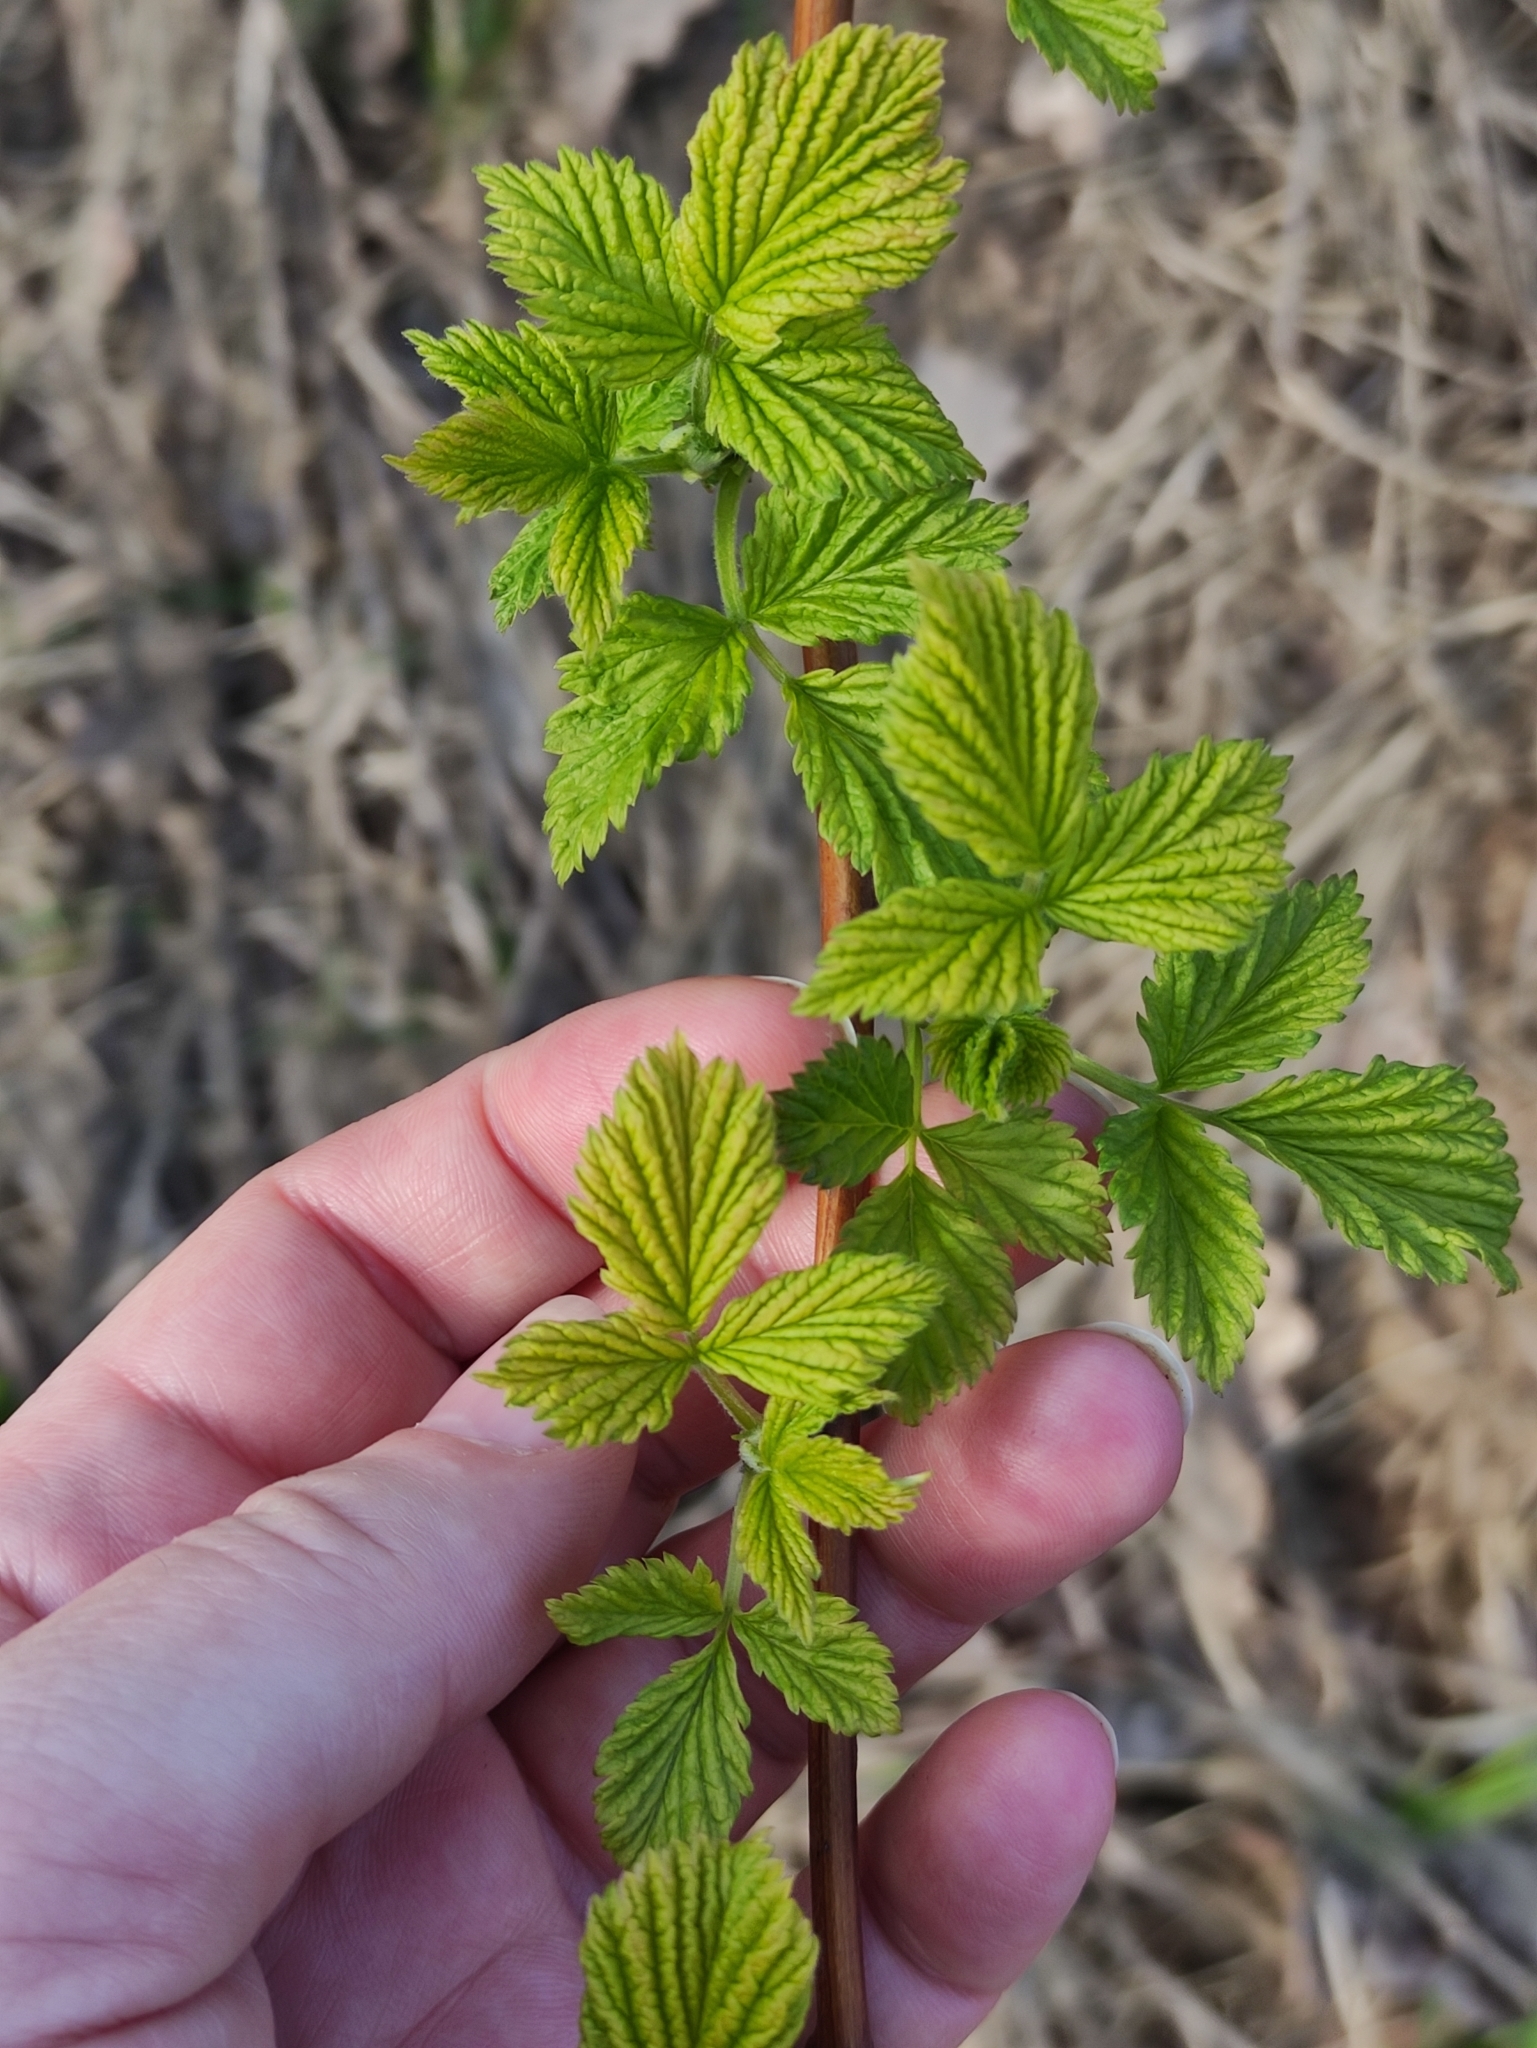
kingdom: Plantae
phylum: Tracheophyta
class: Magnoliopsida
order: Rosales
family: Rosaceae
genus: Rubus
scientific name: Rubus idaeus
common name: Raspberry
